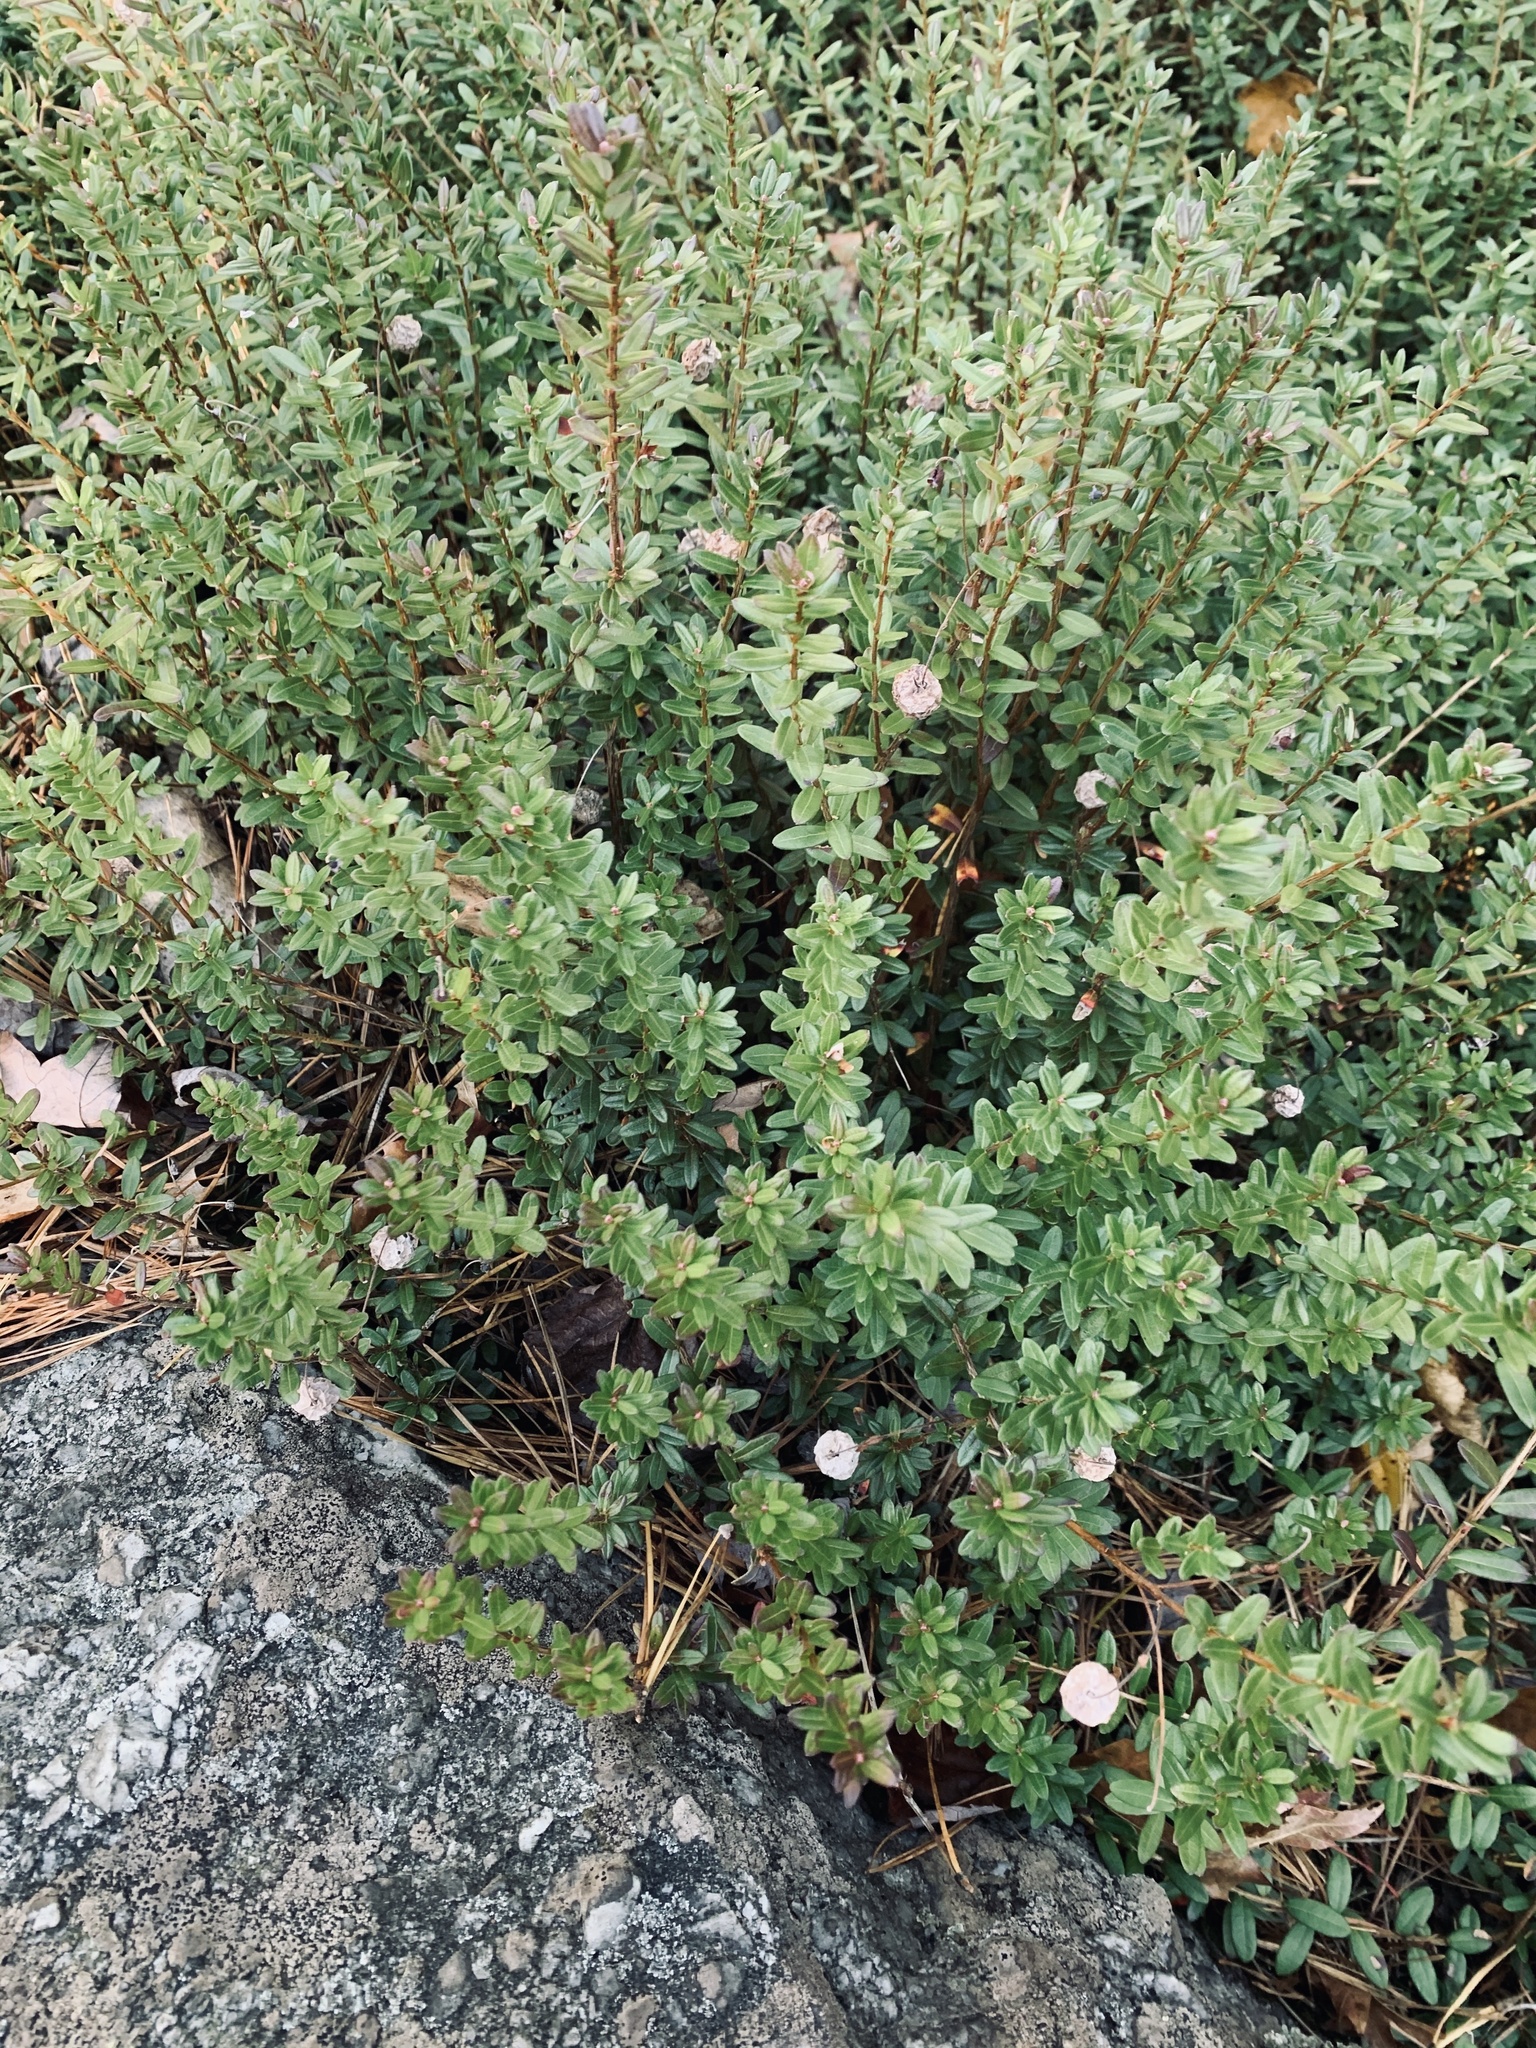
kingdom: Plantae
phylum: Tracheophyta
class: Magnoliopsida
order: Ericales
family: Ericaceae
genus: Vaccinium
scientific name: Vaccinium macrocarpon
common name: American cranberry
